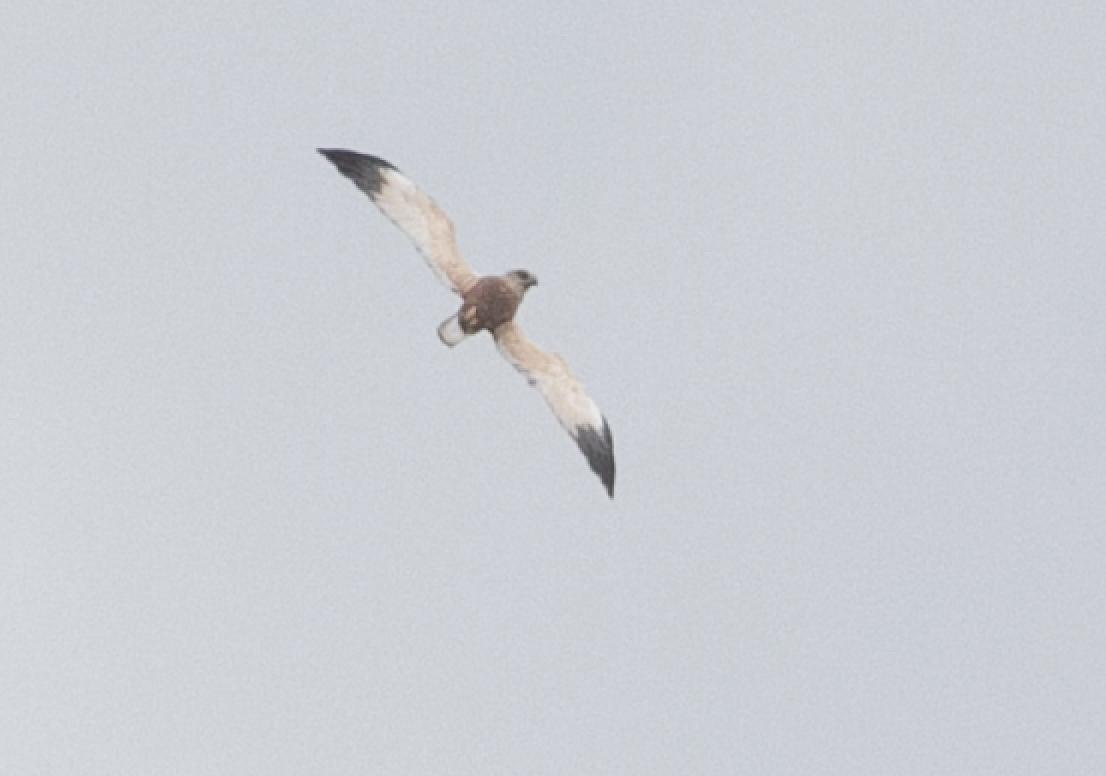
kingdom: Animalia
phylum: Chordata
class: Aves
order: Accipitriformes
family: Accipitridae
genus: Circus
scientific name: Circus aeruginosus
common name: Western marsh harrier
